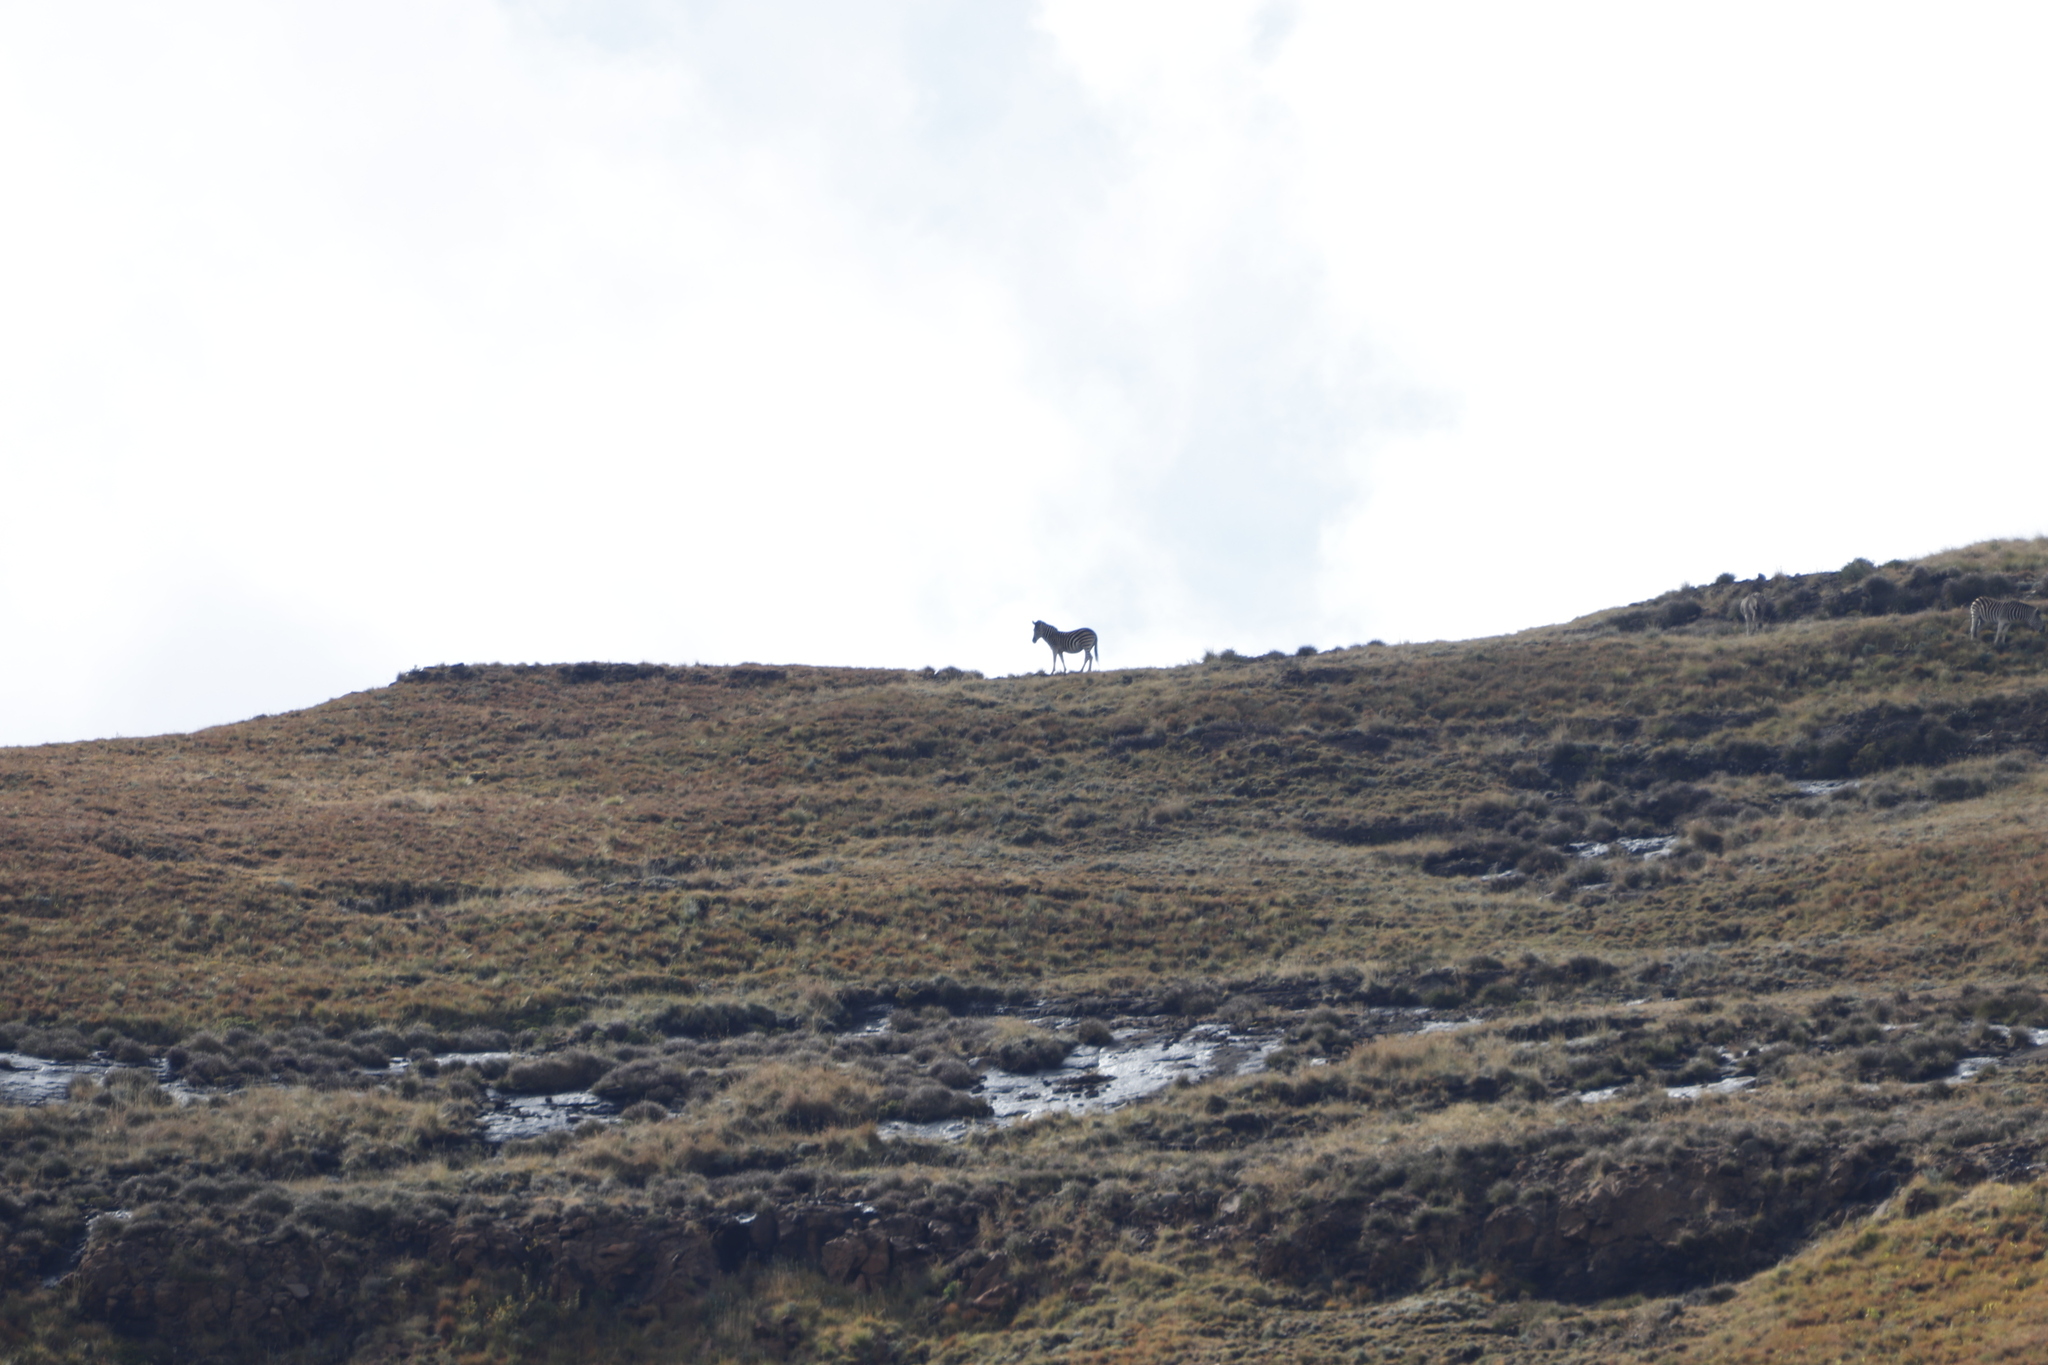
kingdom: Animalia
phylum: Chordata
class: Mammalia
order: Perissodactyla
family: Equidae
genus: Equus
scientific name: Equus quagga
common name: Plains zebra
